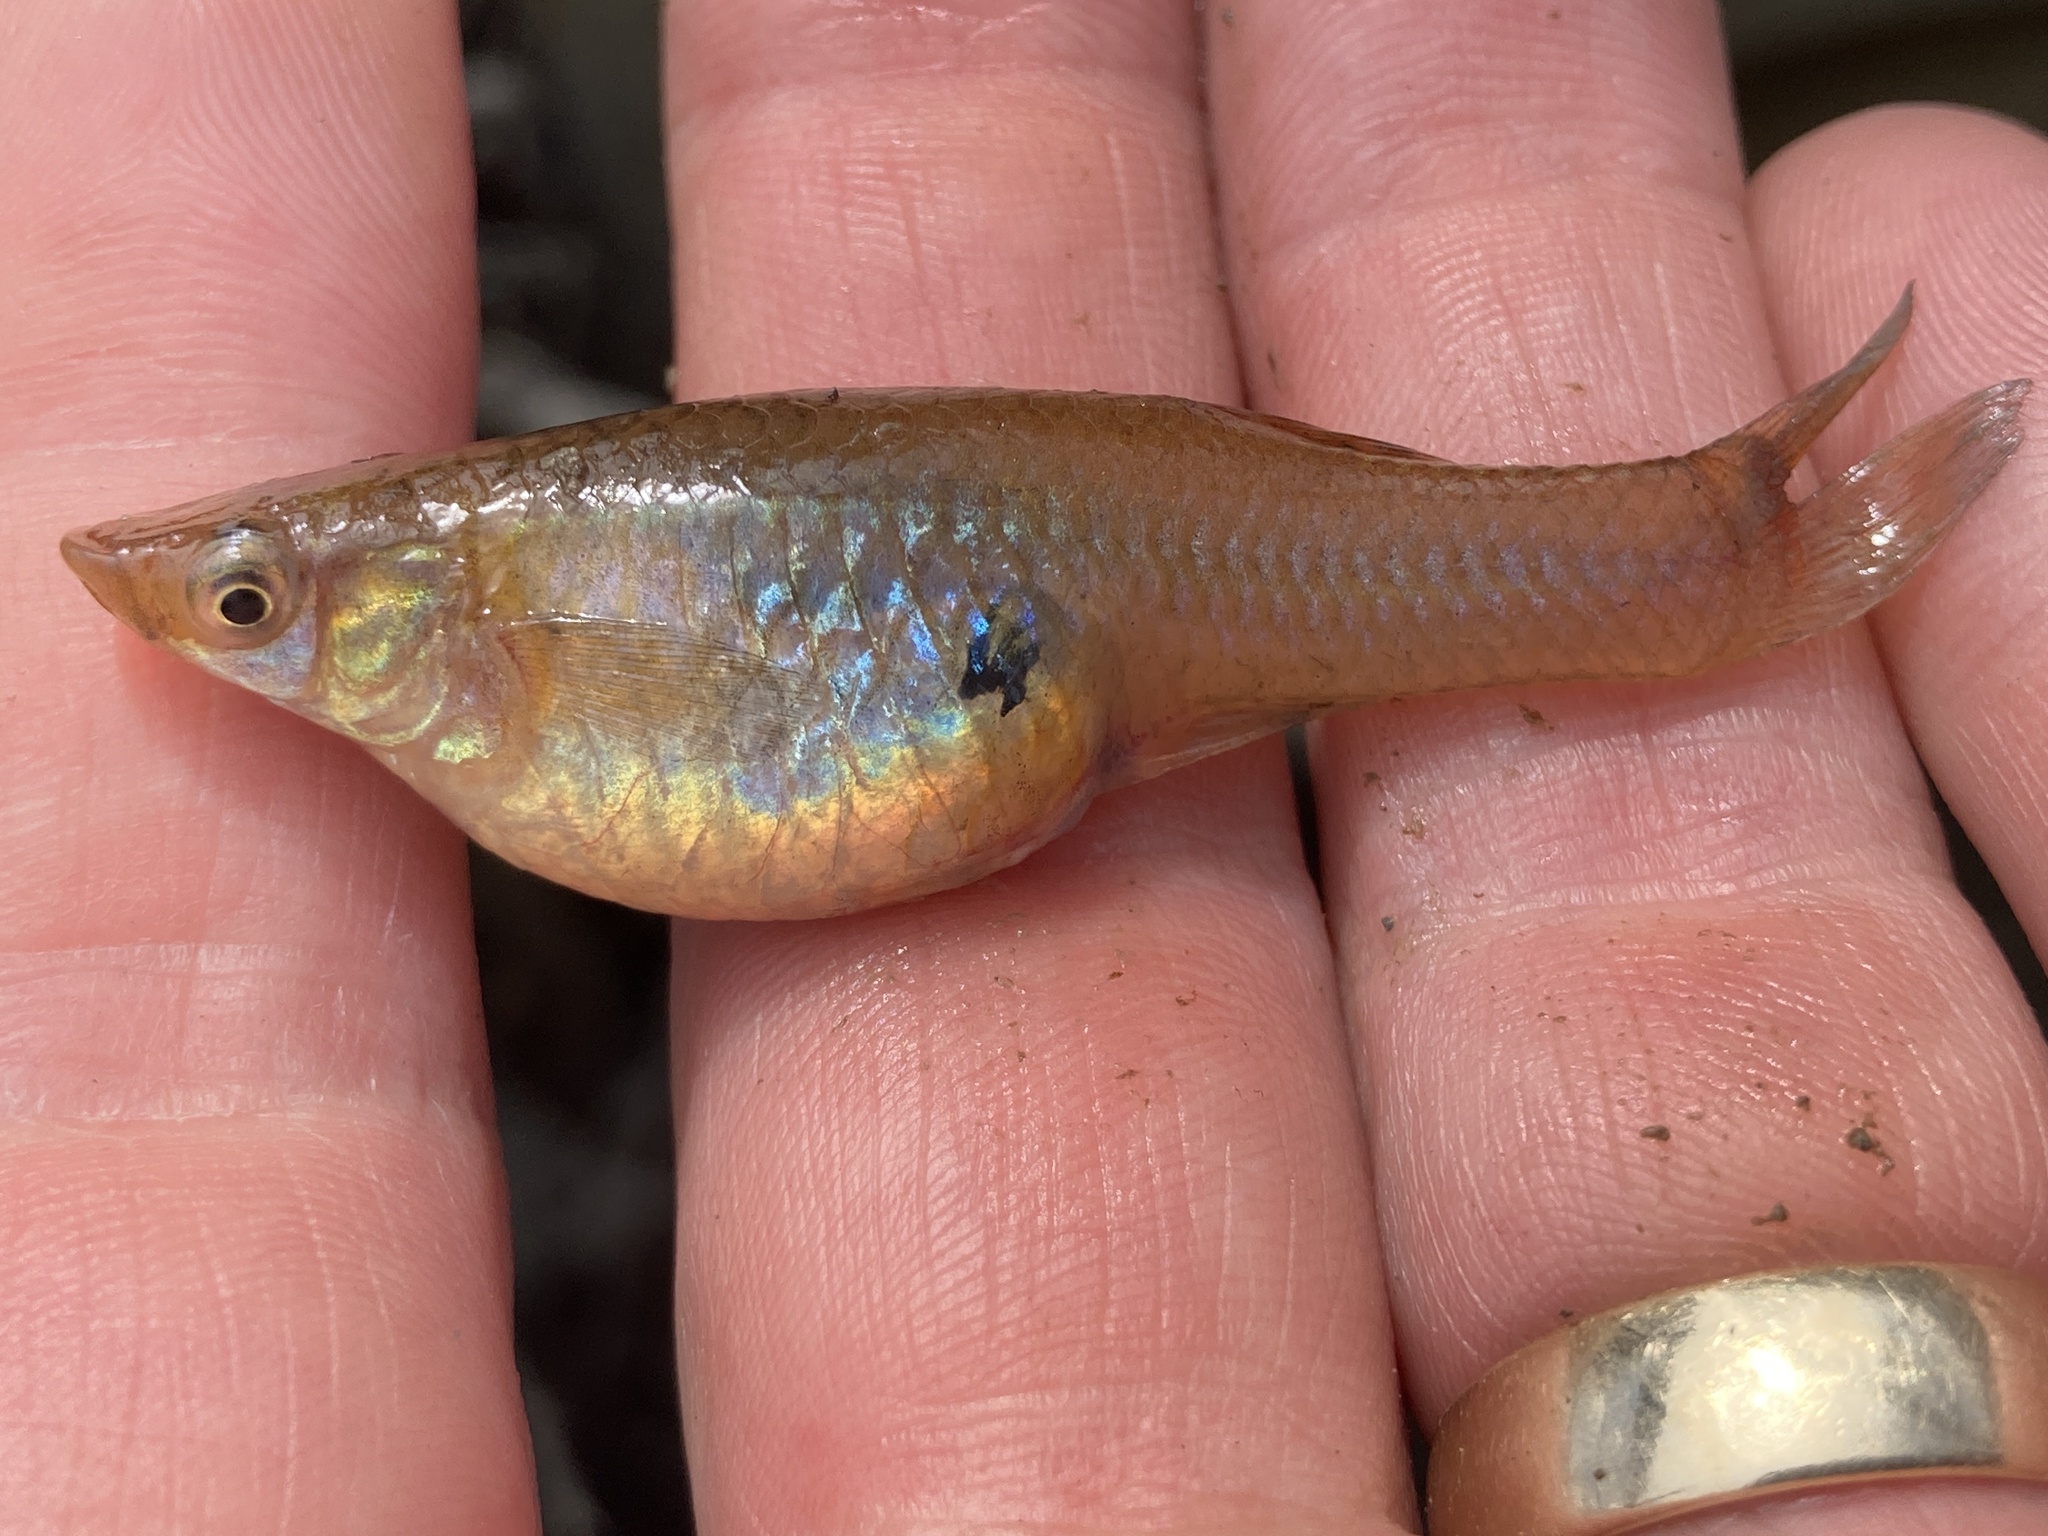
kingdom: Animalia
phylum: Chordata
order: Cyprinodontiformes
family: Poeciliidae
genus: Gambusia
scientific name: Gambusia affinis
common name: Mosquitofish
